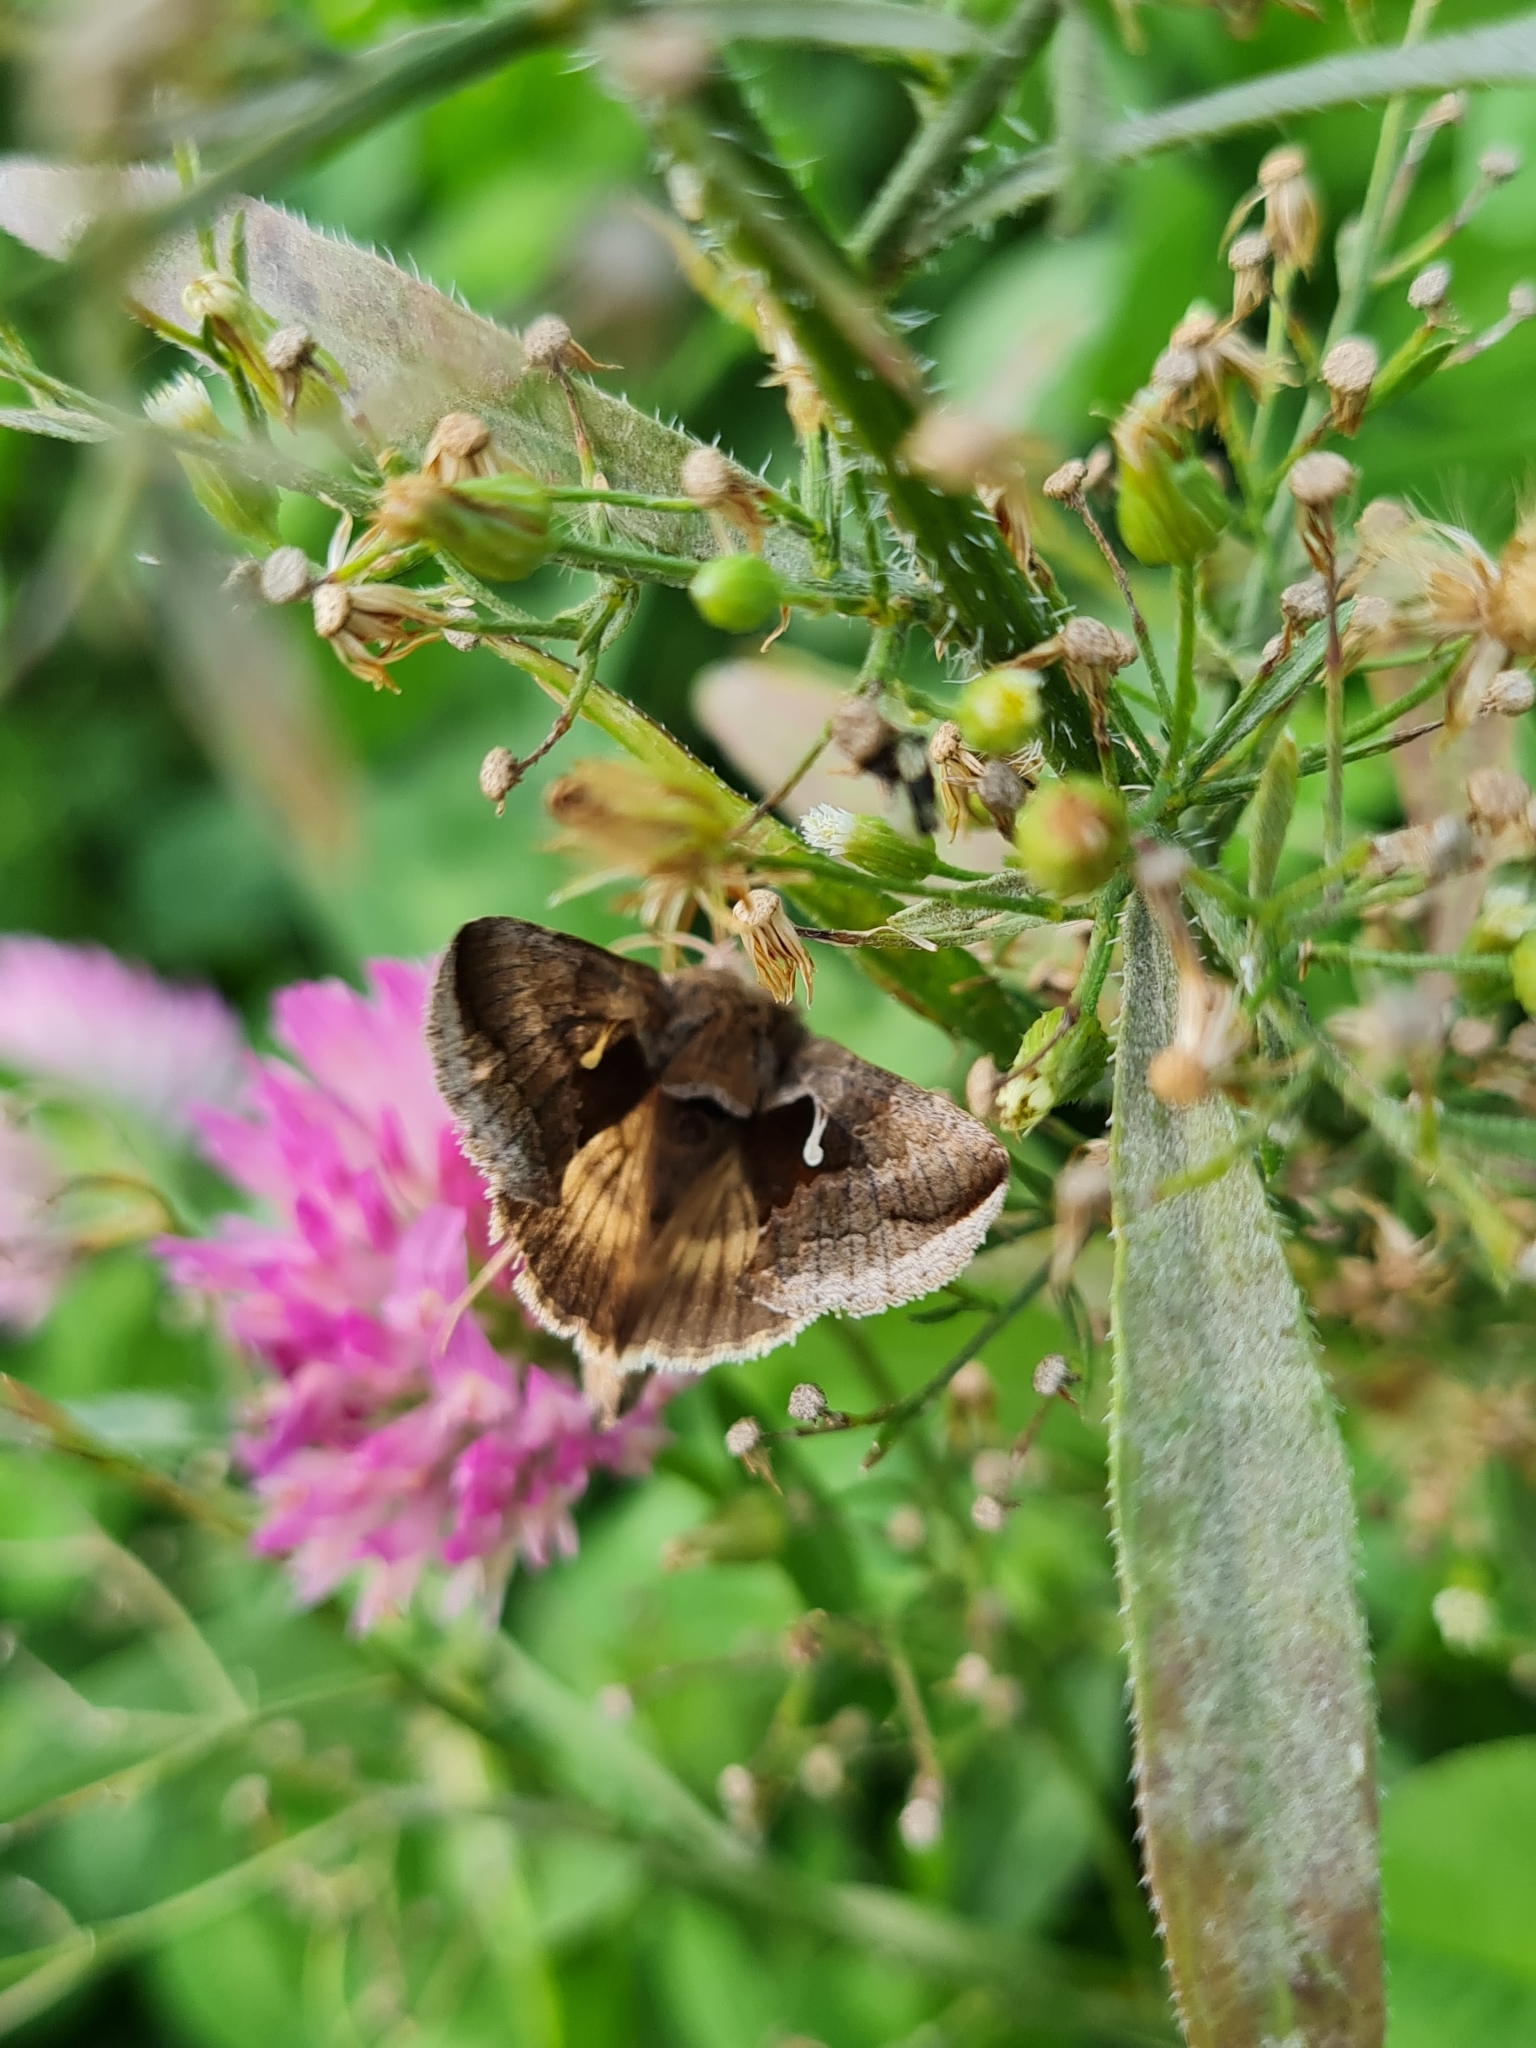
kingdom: Animalia
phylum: Arthropoda
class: Insecta
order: Lepidoptera
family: Noctuidae
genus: Anagrapha
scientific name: Anagrapha falcifera
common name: Celery looper
